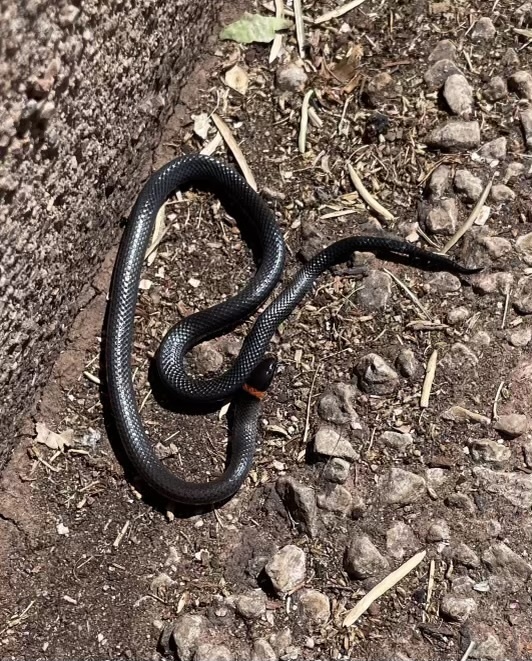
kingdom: Animalia
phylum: Chordata
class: Squamata
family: Colubridae
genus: Diadophis
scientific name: Diadophis punctatus
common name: Ringneck snake
